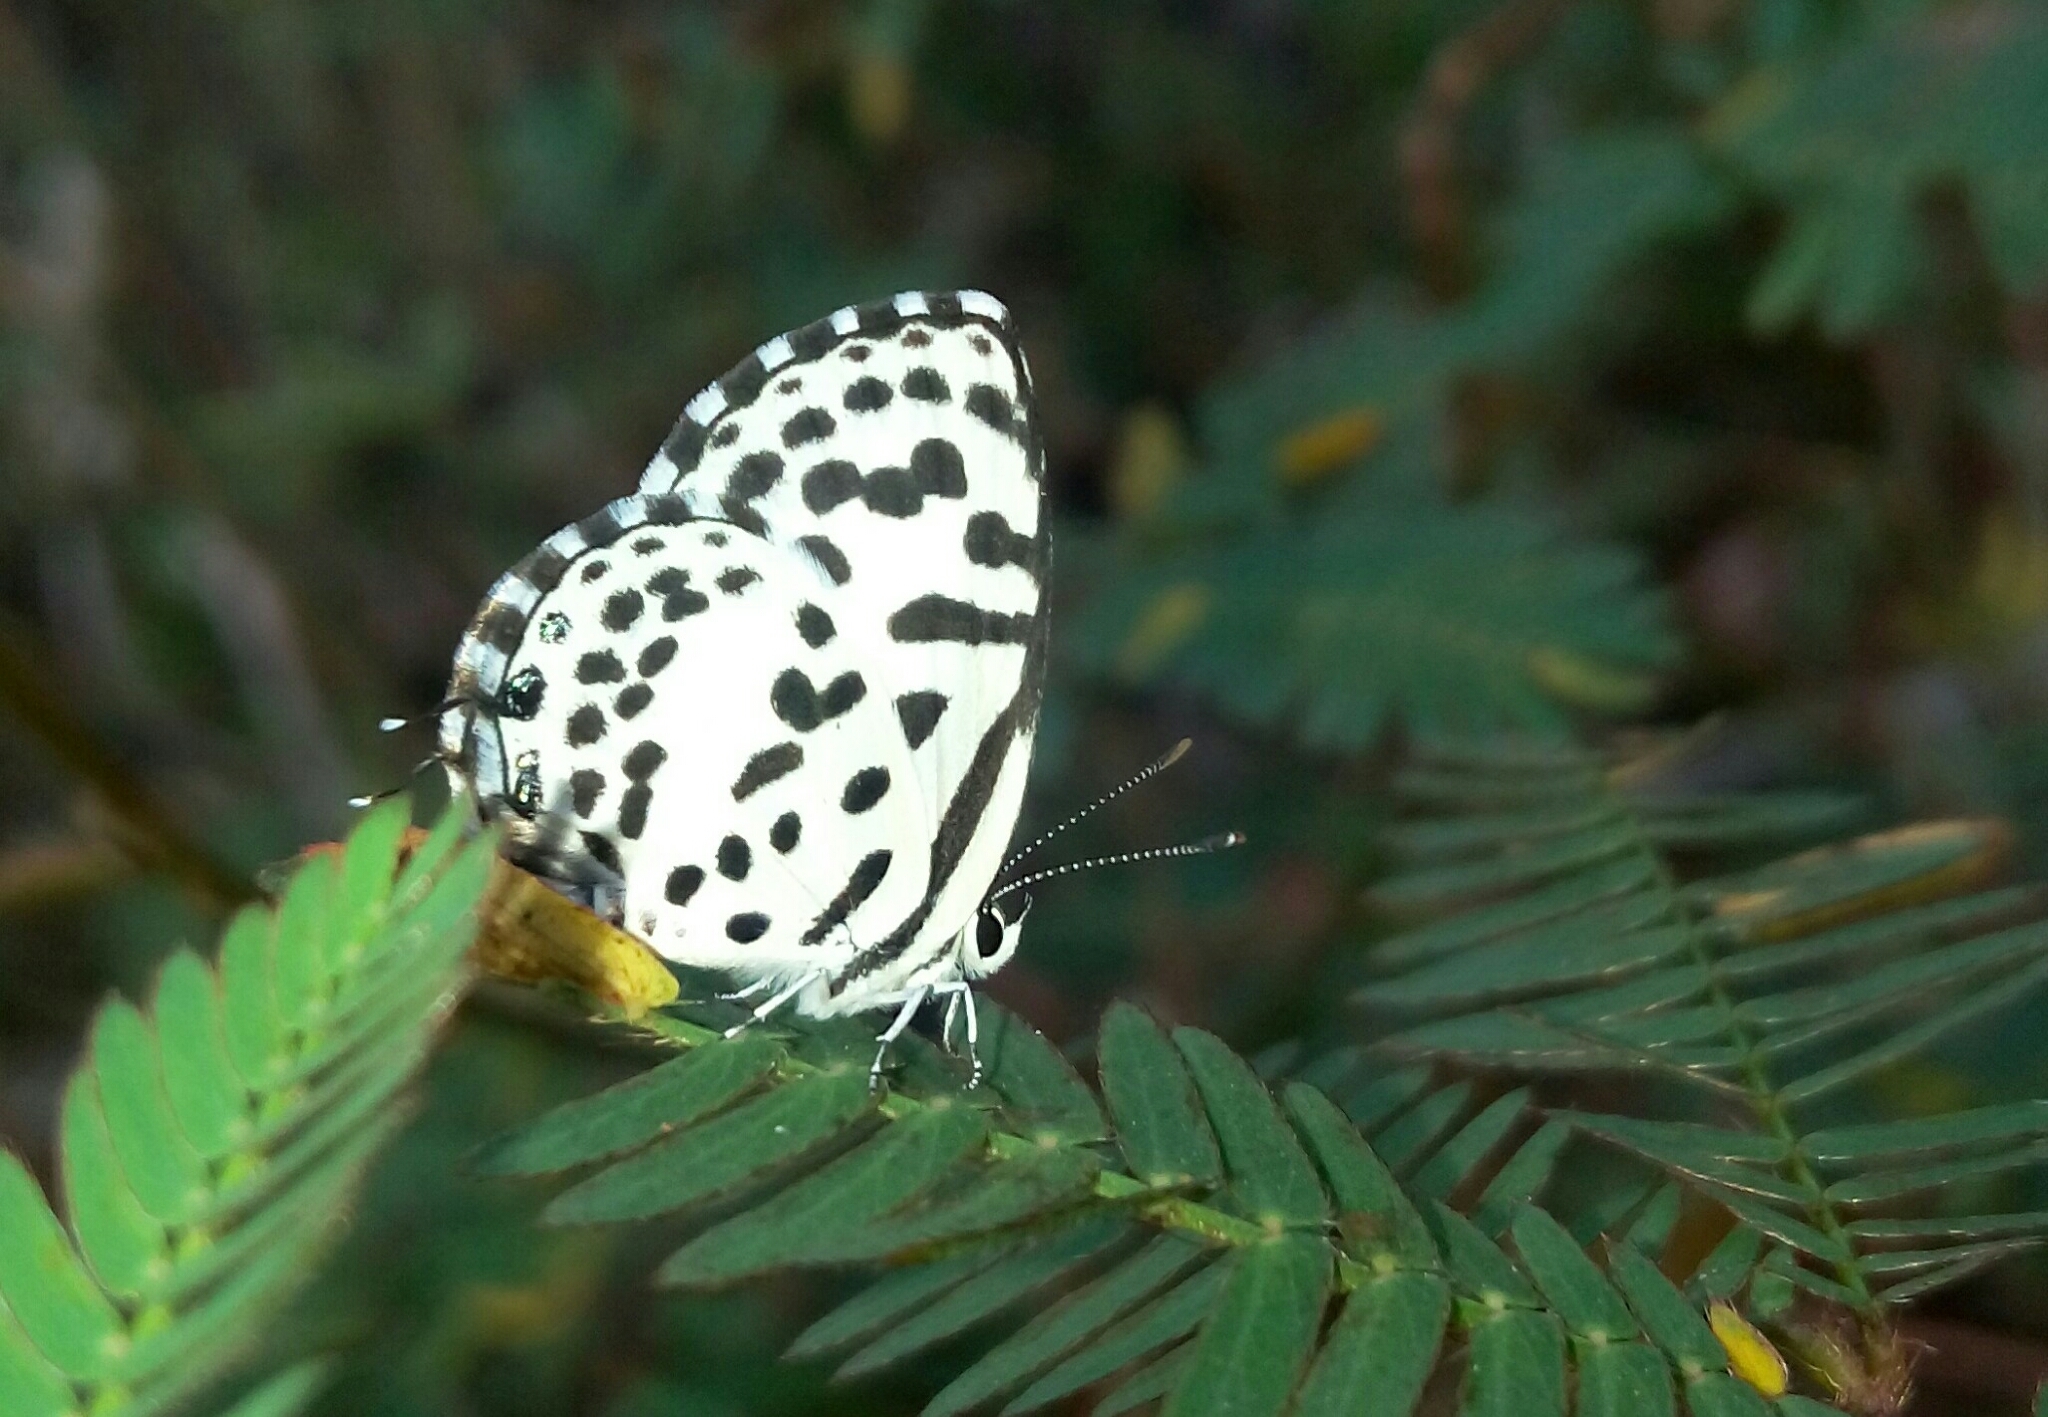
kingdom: Animalia
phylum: Arthropoda
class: Insecta
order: Lepidoptera
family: Lycaenidae
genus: Castalius
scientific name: Castalius rosimon
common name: Common pierrot
